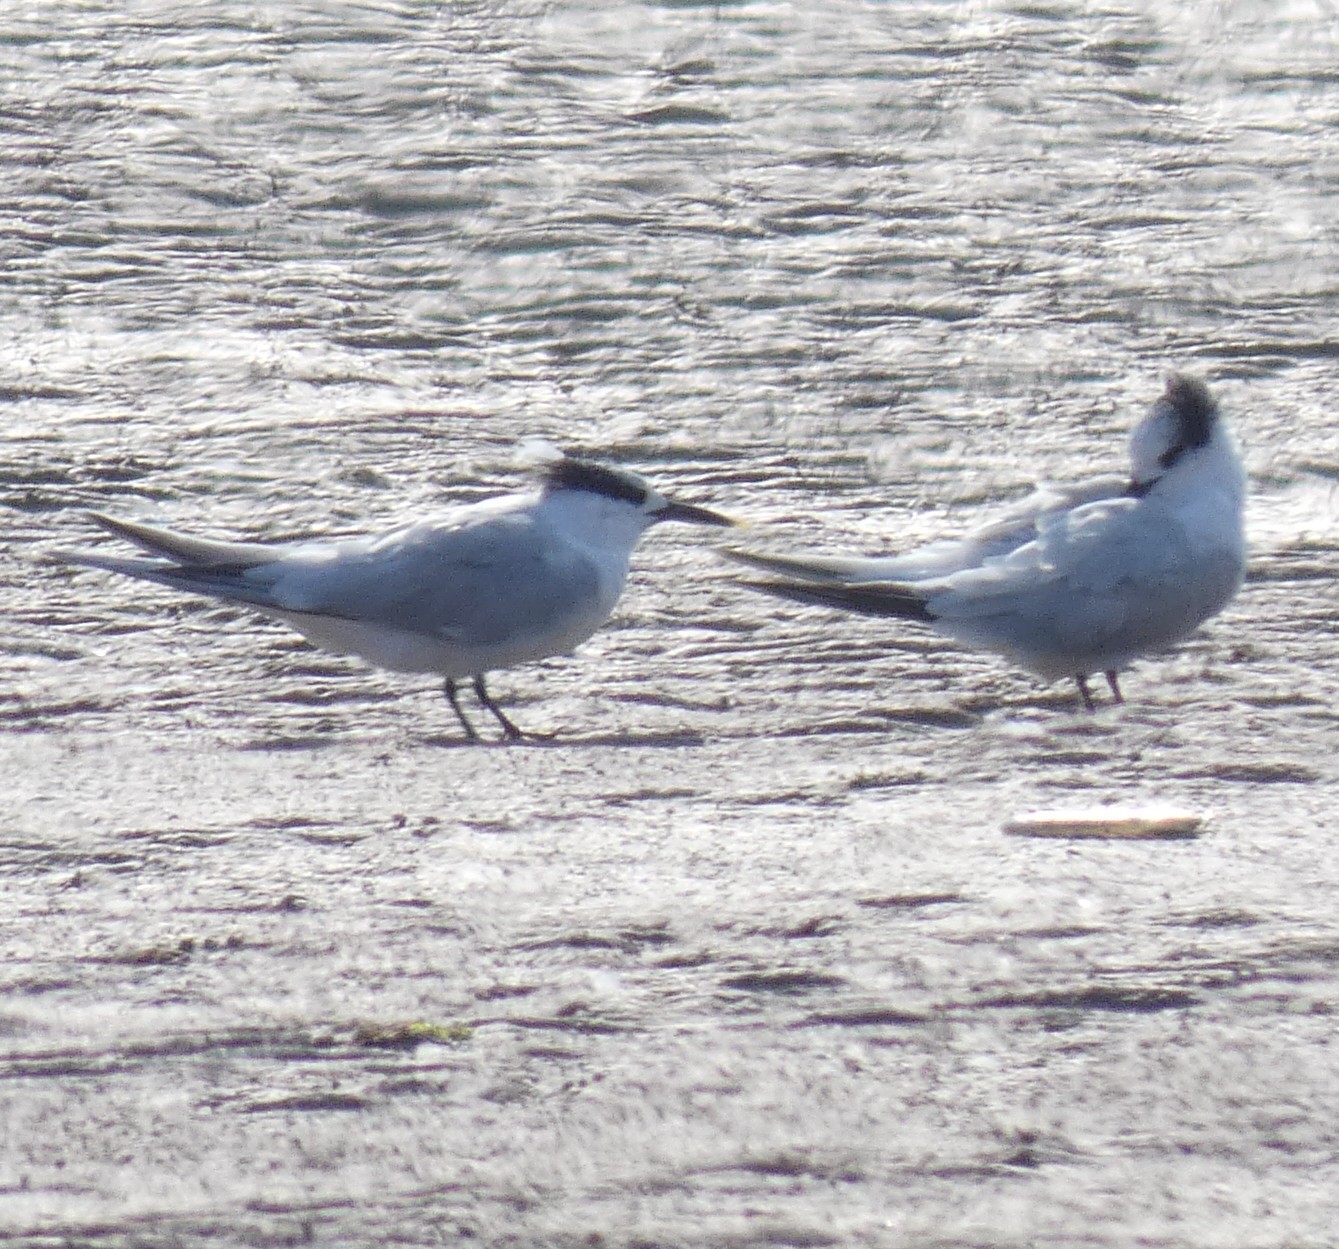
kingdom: Animalia
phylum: Chordata
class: Aves
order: Charadriiformes
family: Laridae
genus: Thalasseus
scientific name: Thalasseus sandvicensis
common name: Sandwich tern
